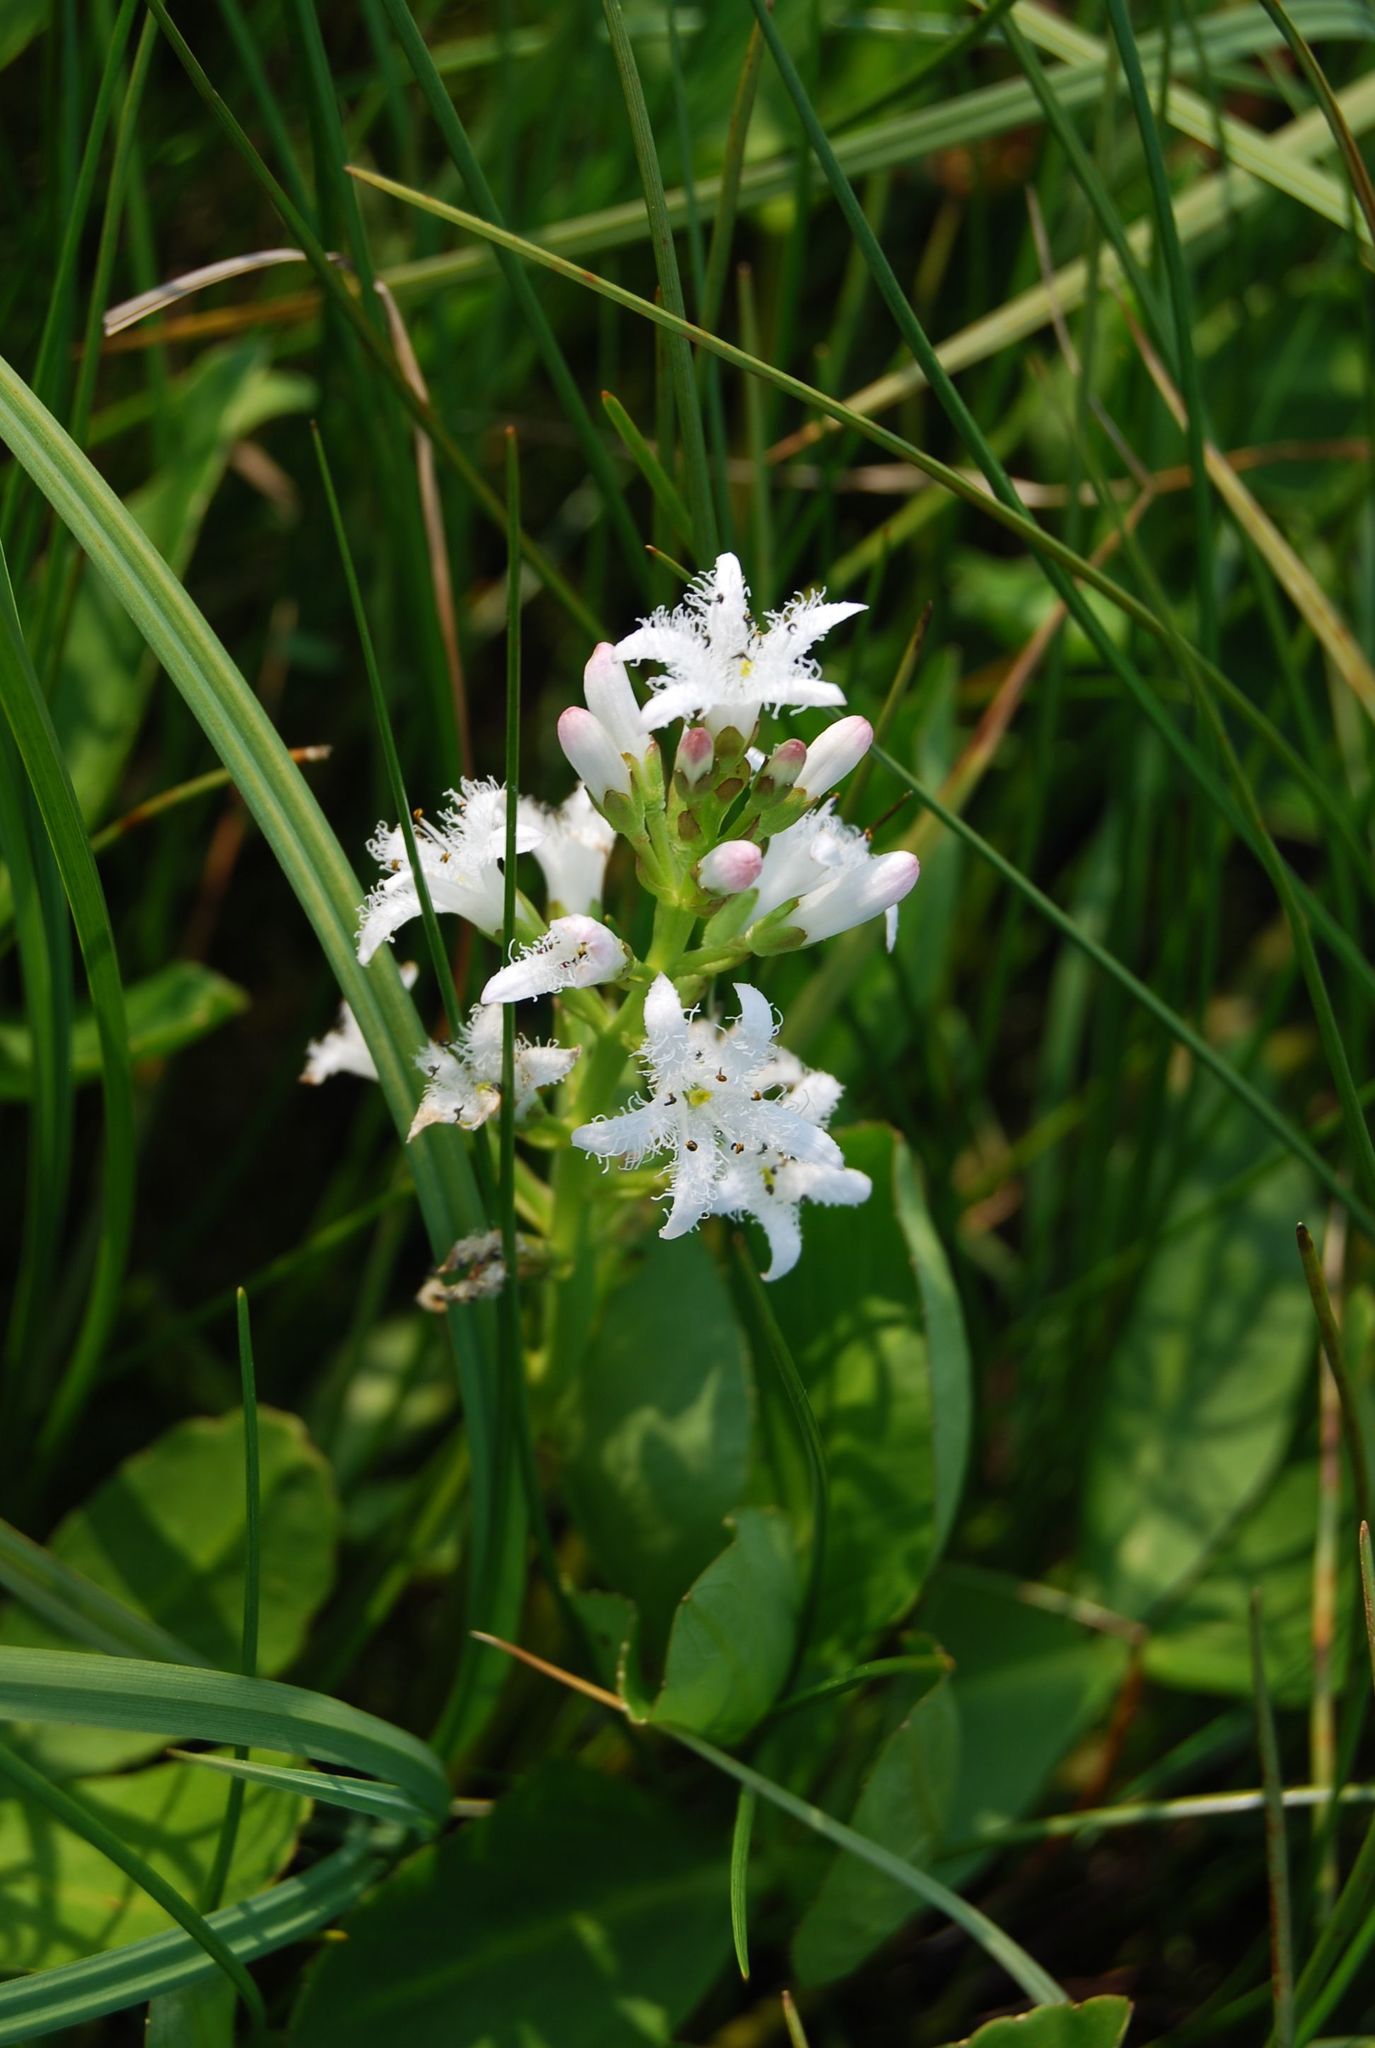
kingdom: Plantae
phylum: Tracheophyta
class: Magnoliopsida
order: Asterales
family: Menyanthaceae
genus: Menyanthes
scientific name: Menyanthes trifoliata
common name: Bogbean
